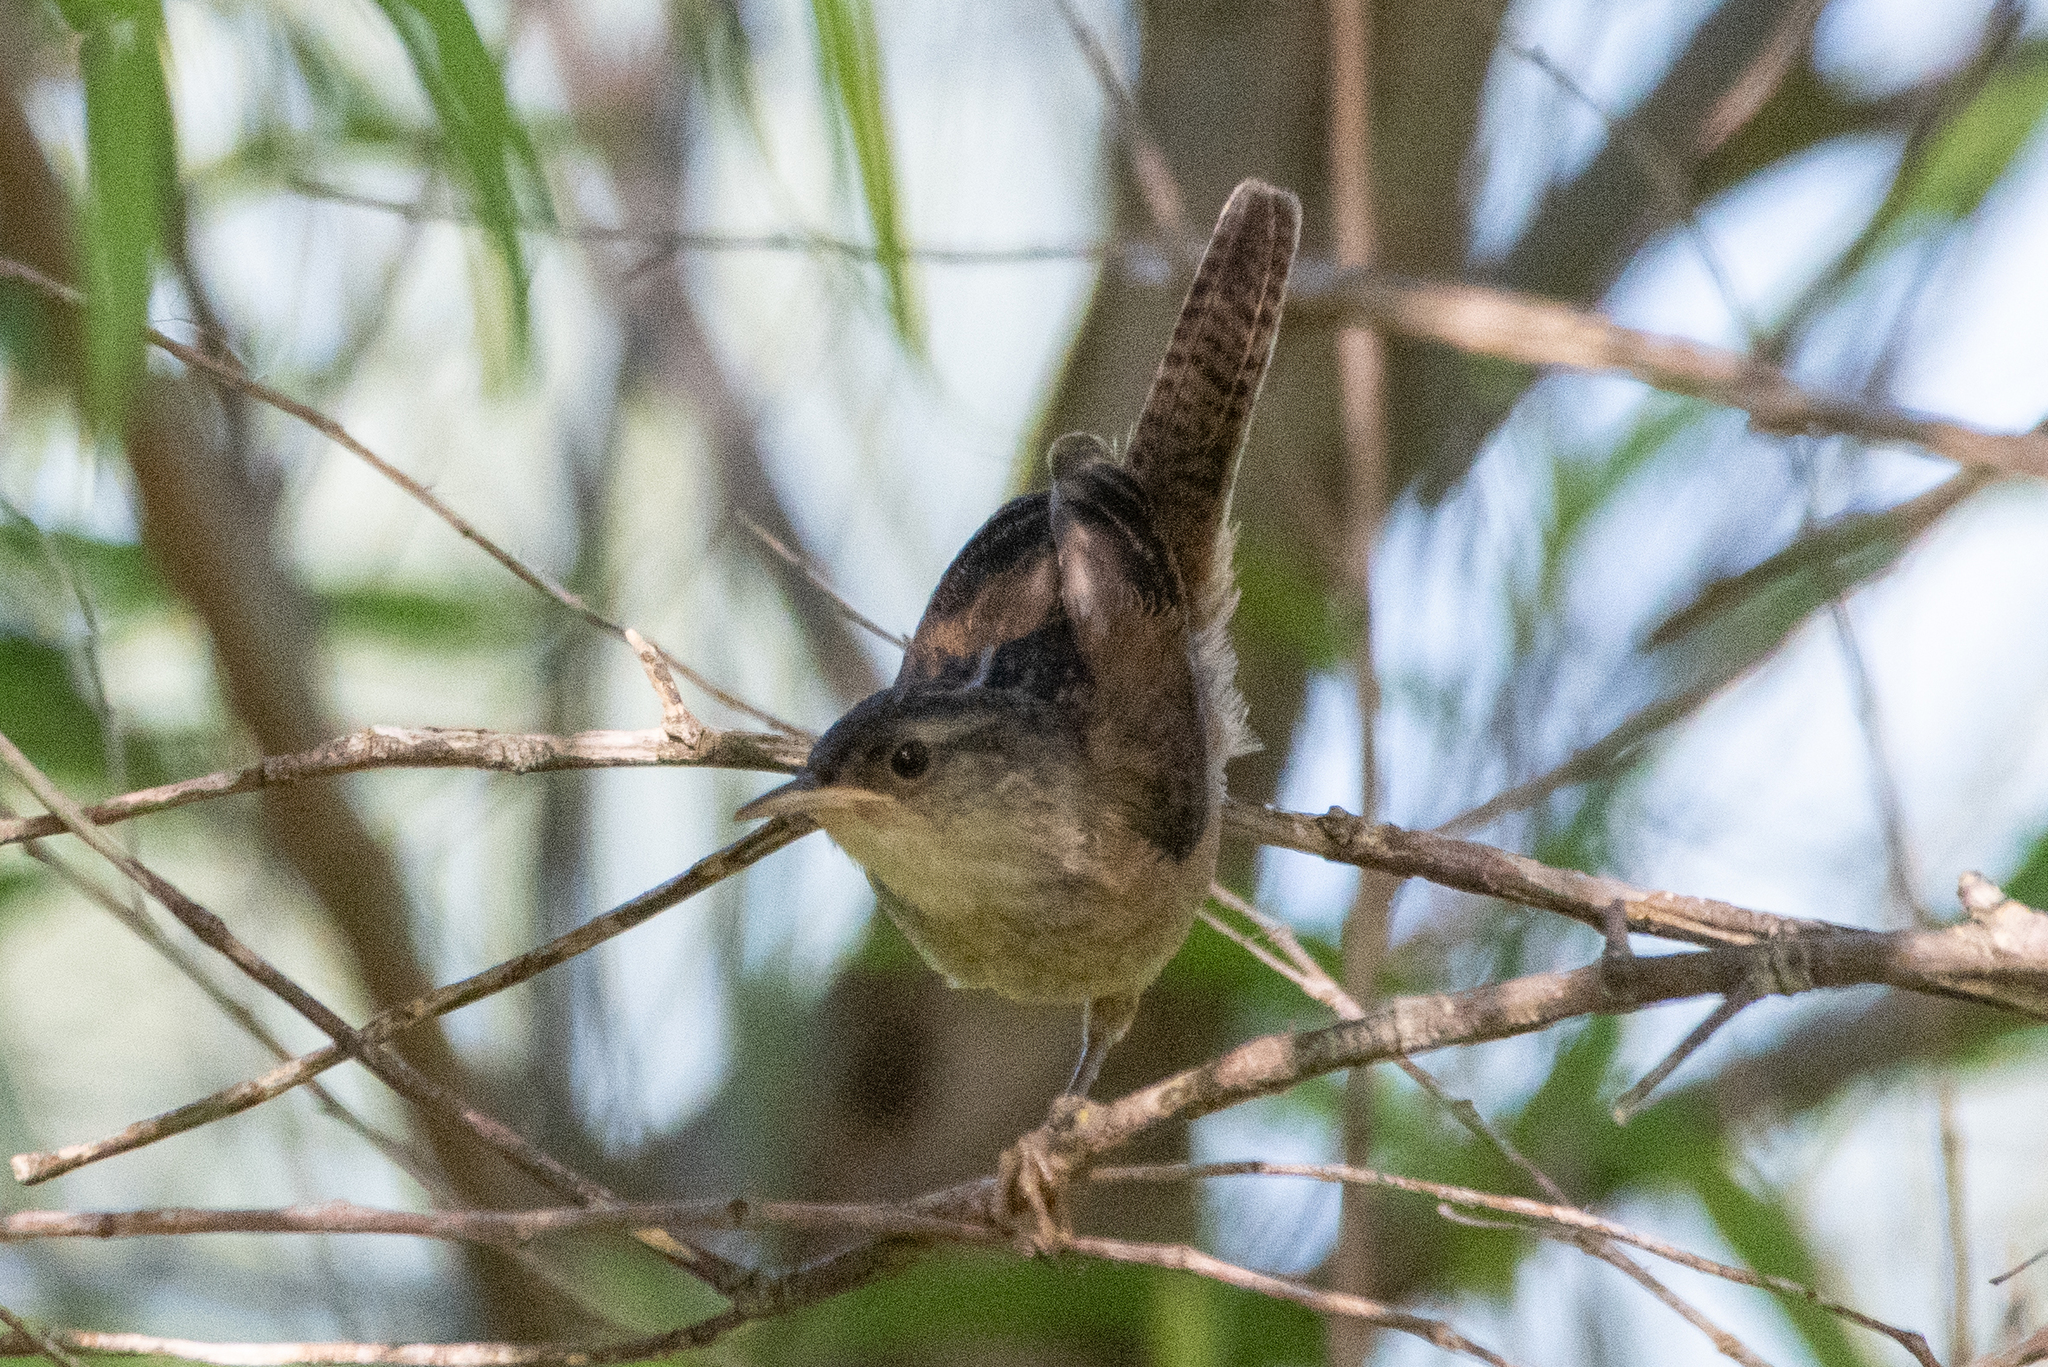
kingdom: Animalia
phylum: Chordata
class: Aves
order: Passeriformes
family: Troglodytidae
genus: Cistothorus
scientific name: Cistothorus palustris
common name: Marsh wren
